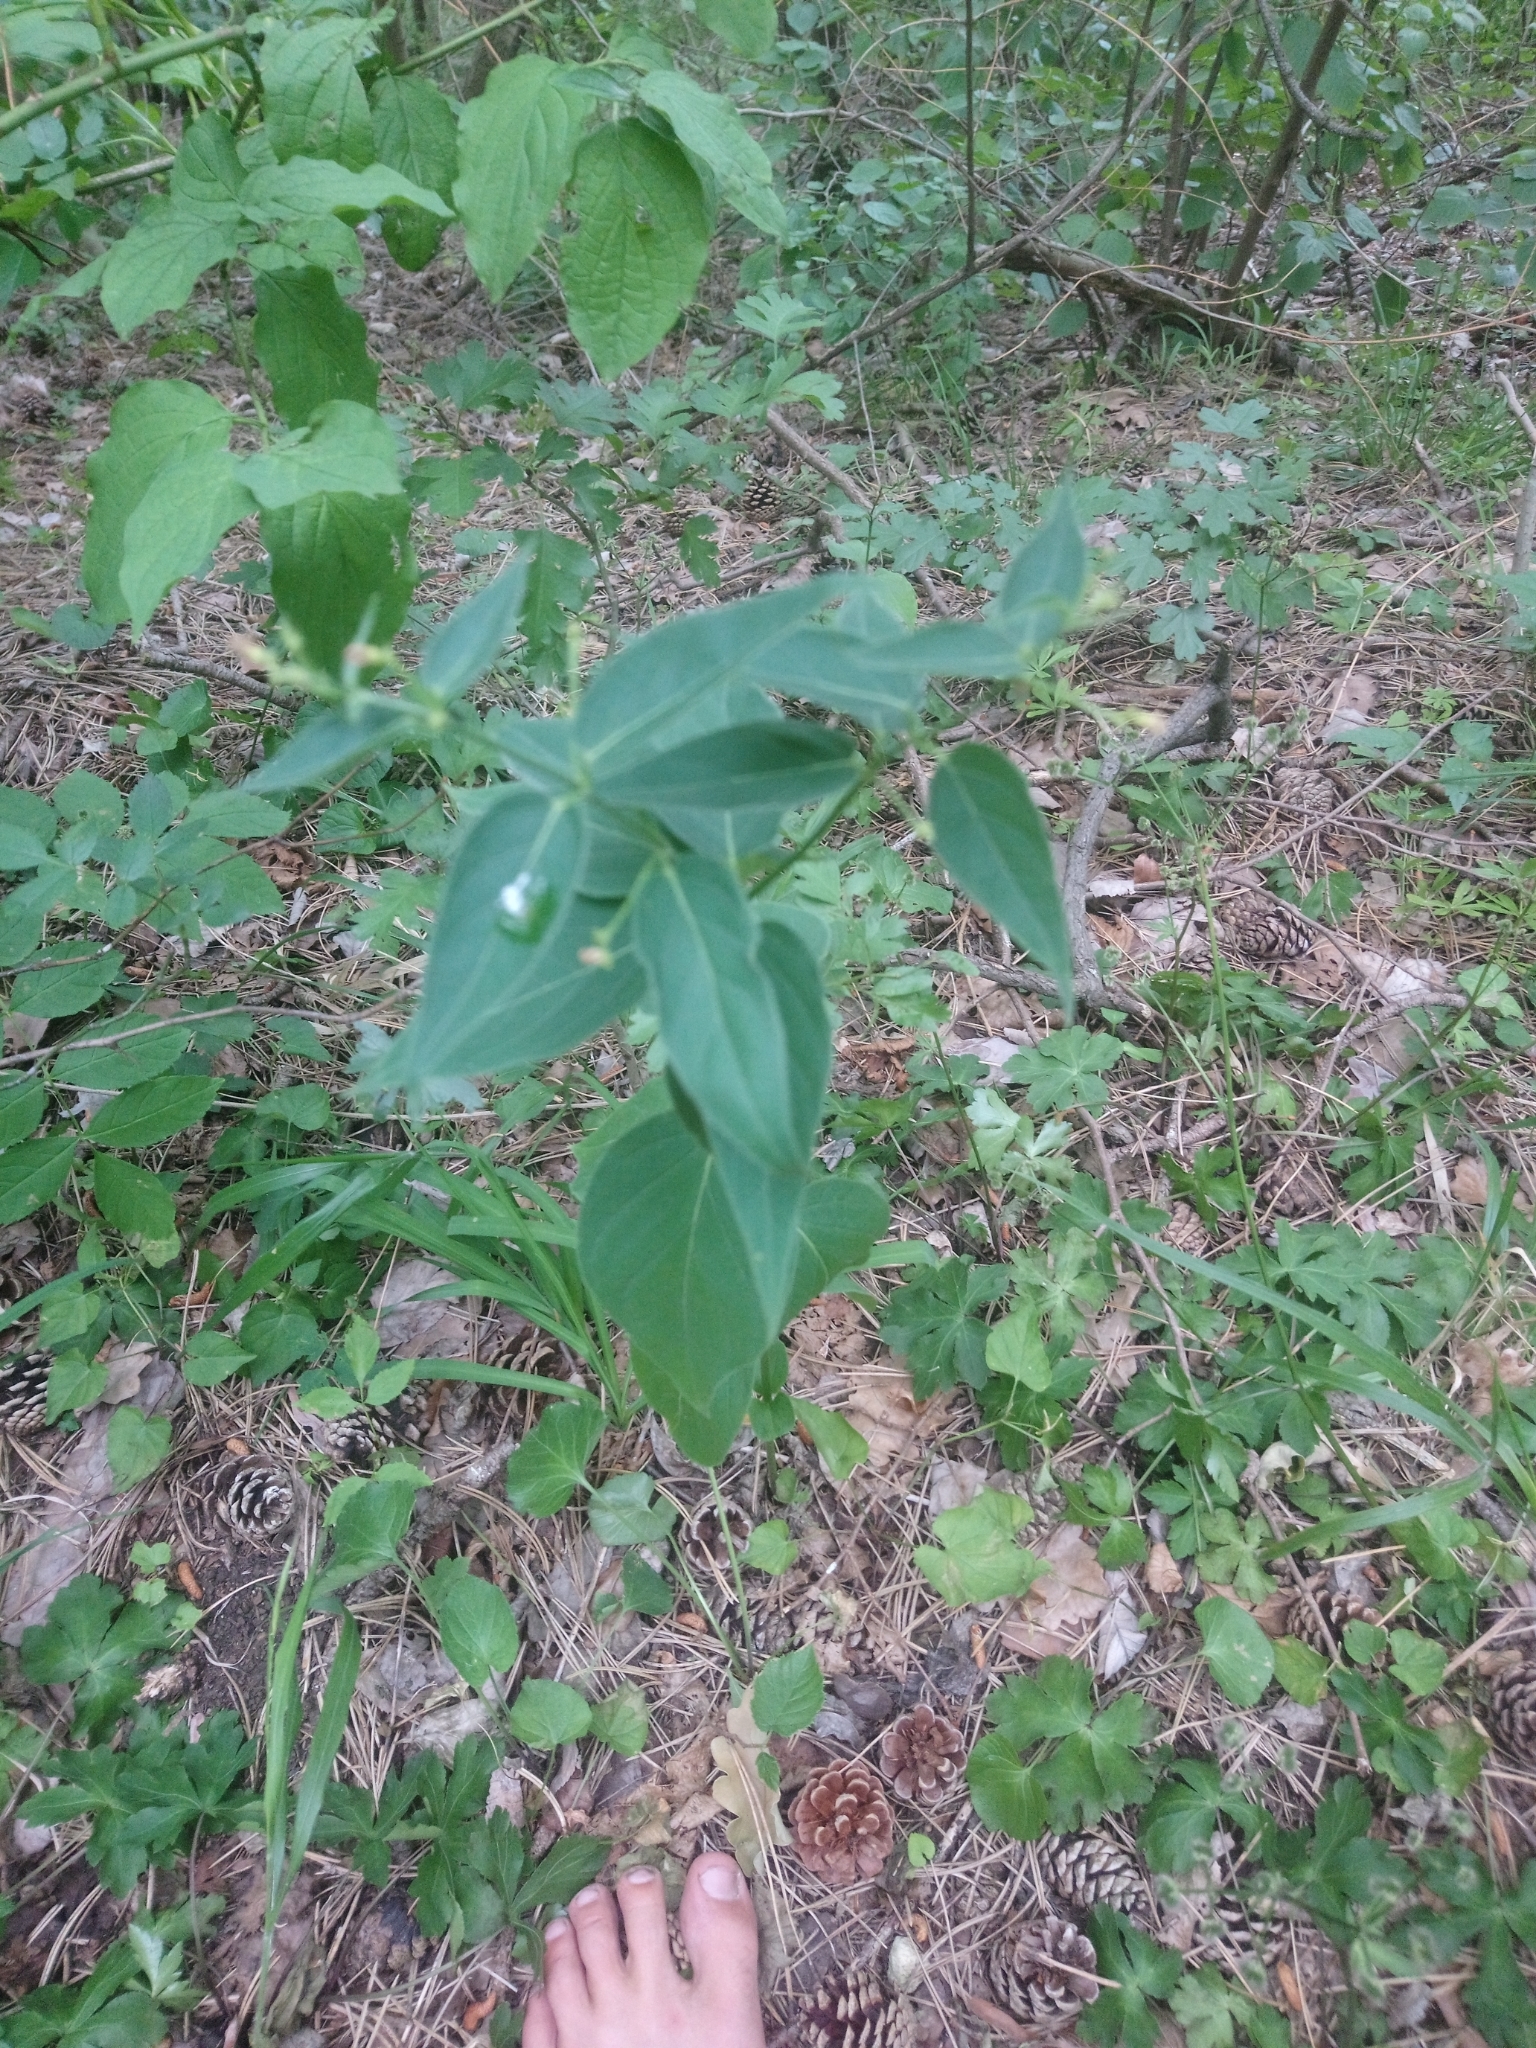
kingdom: Plantae
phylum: Tracheophyta
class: Magnoliopsida
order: Gentianales
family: Apocynaceae
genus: Vincetoxicum
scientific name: Vincetoxicum hirundinaria
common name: White swallowwort
